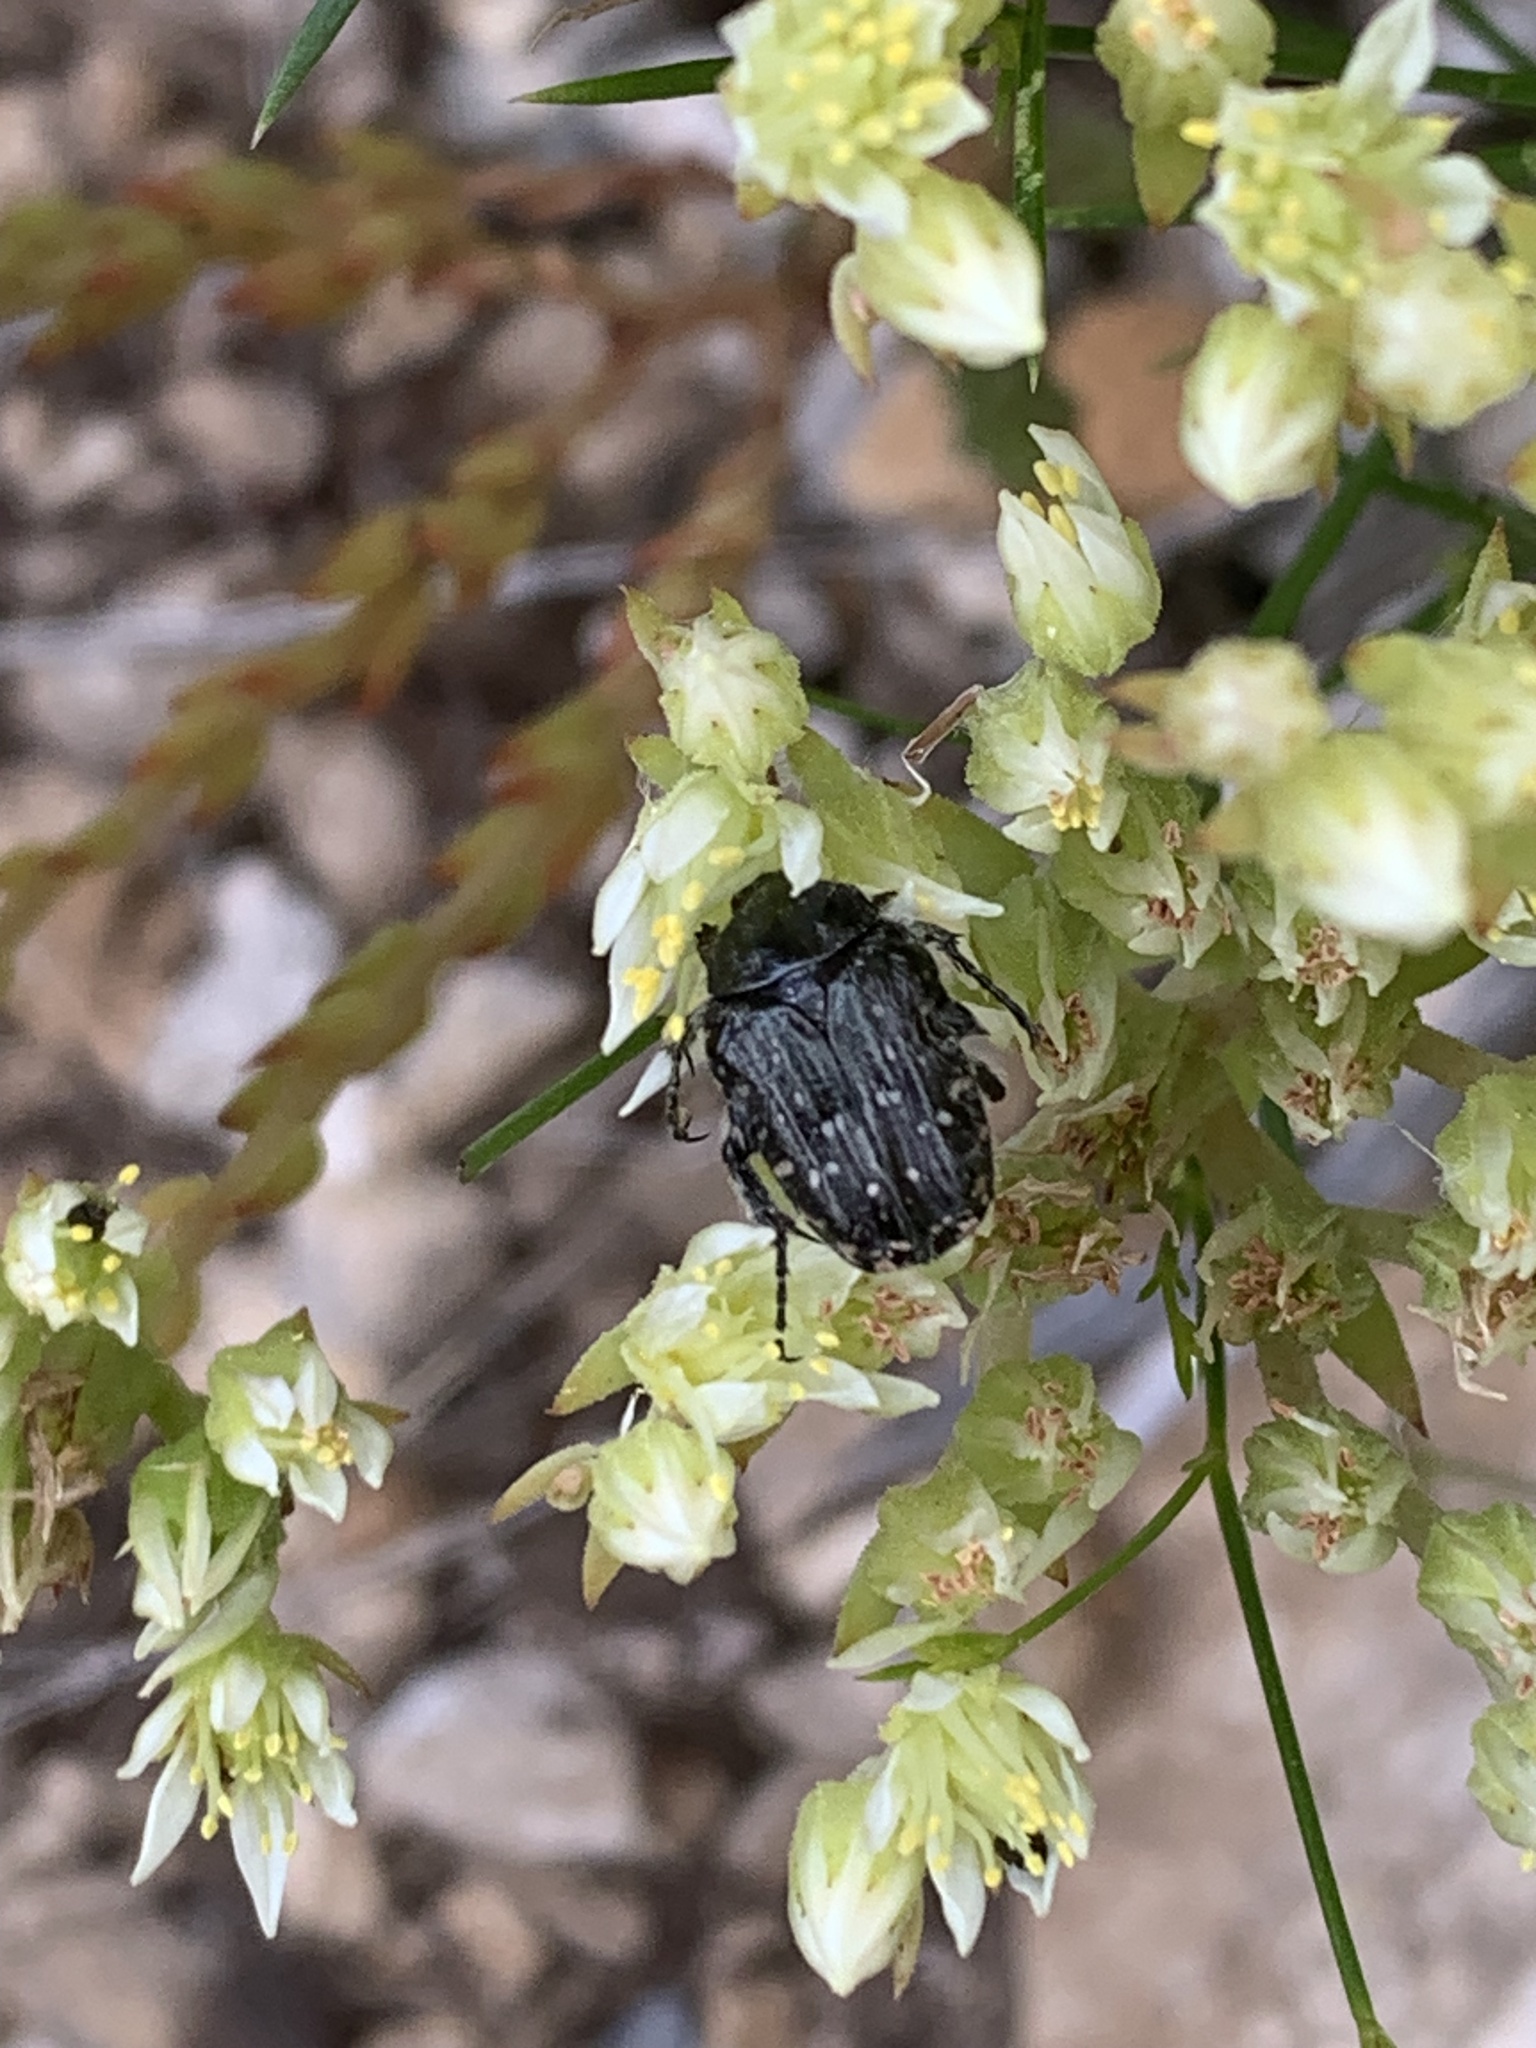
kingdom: Animalia
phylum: Arthropoda
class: Insecta
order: Coleoptera
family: Scarabaeidae
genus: Oxythyrea
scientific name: Oxythyrea funesta
